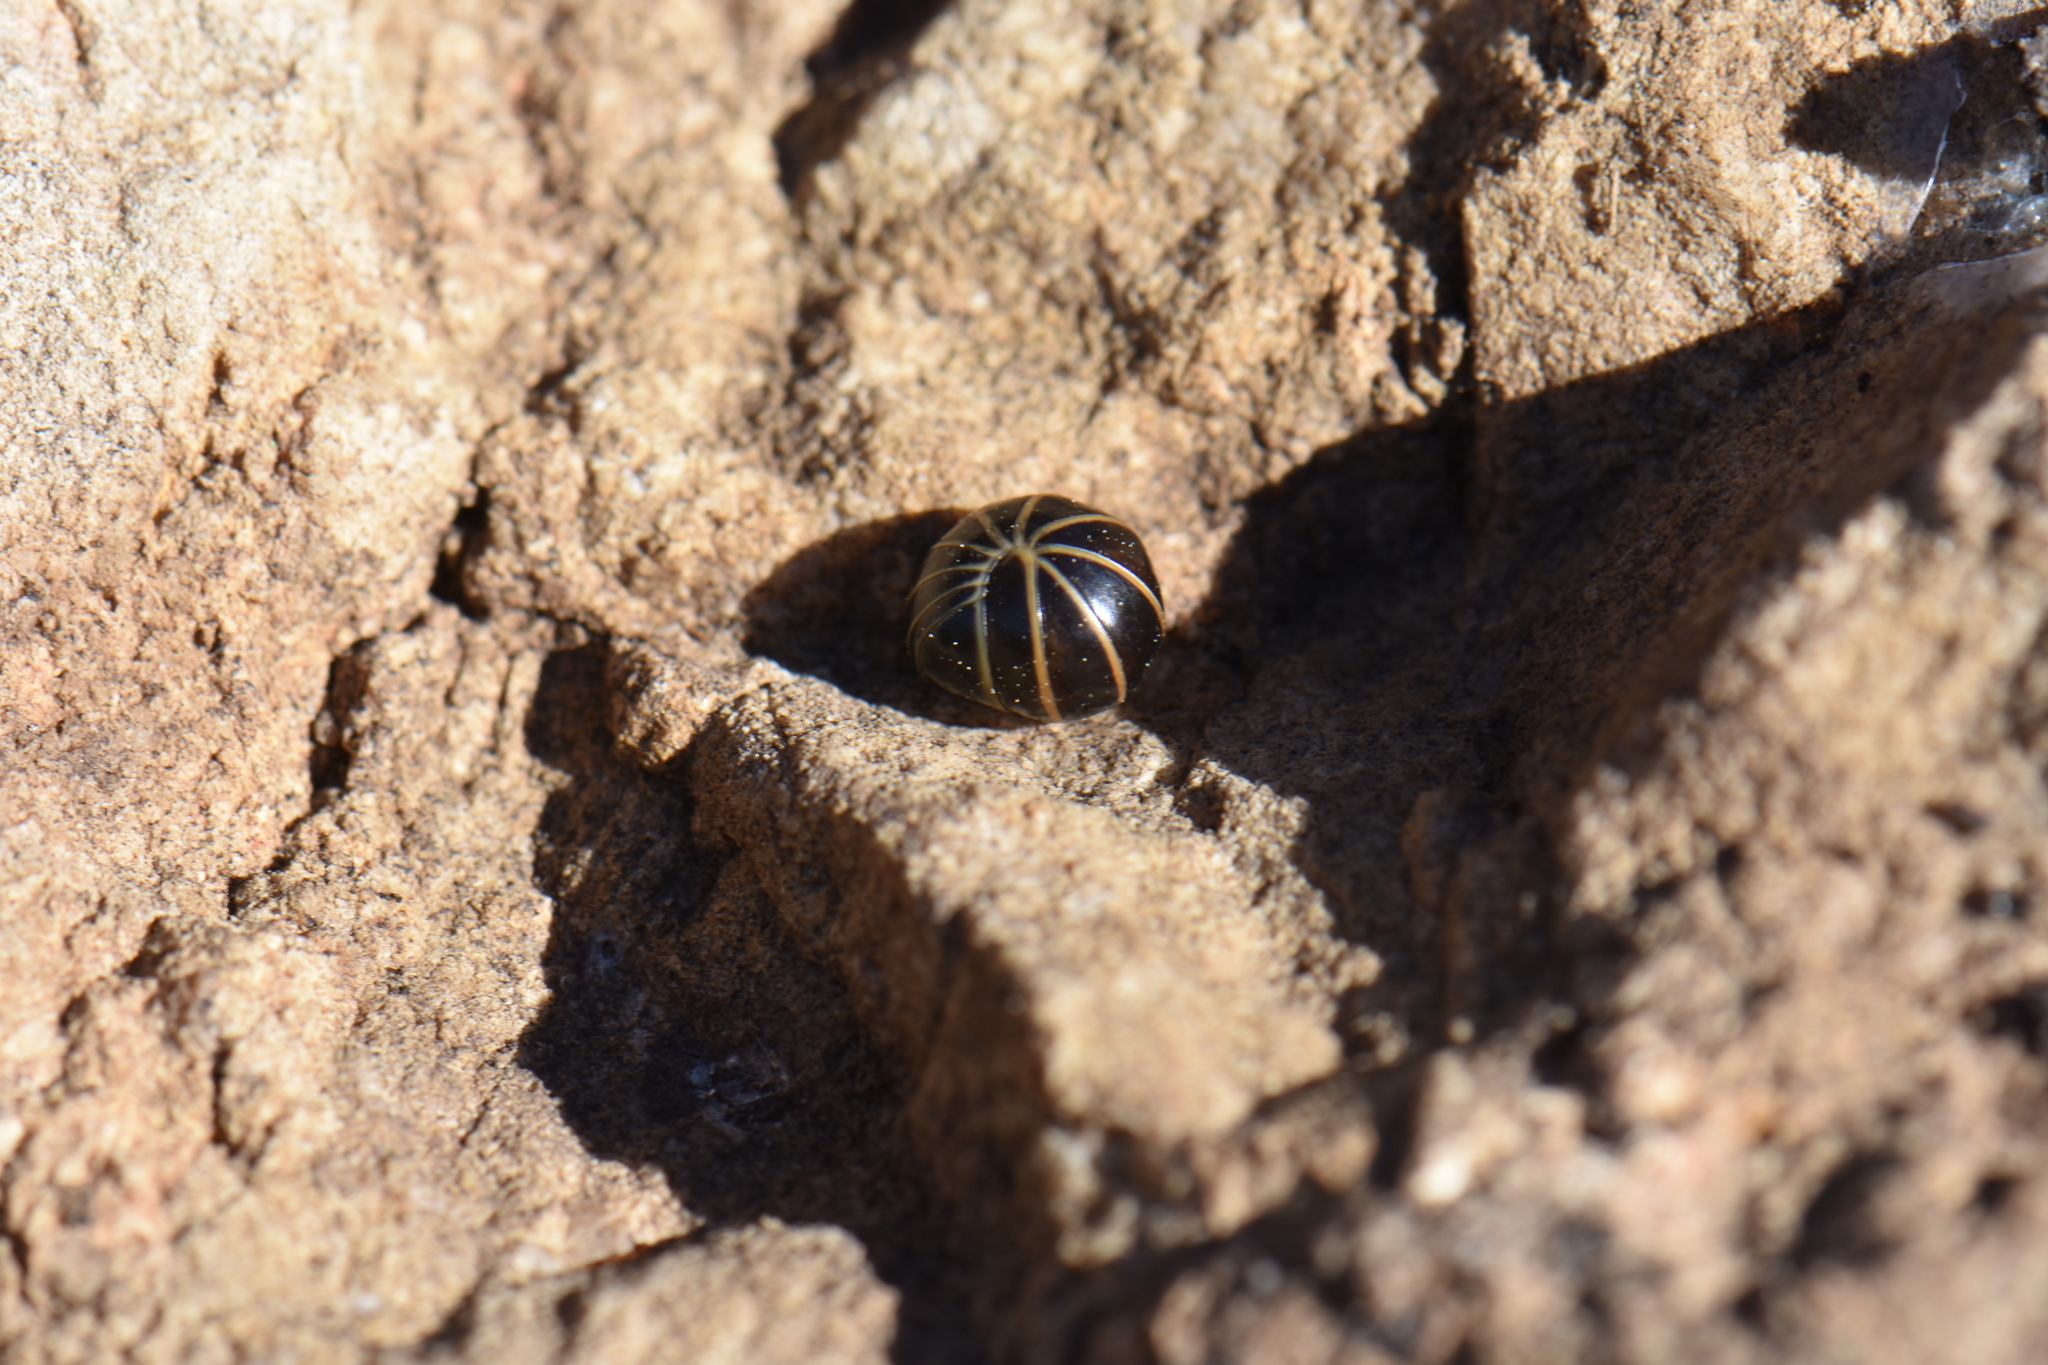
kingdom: Animalia
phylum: Arthropoda
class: Diplopoda
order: Glomerida
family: Glomeridae
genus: Glomeris
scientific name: Glomeris marginata
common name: Bordered pill millipede
